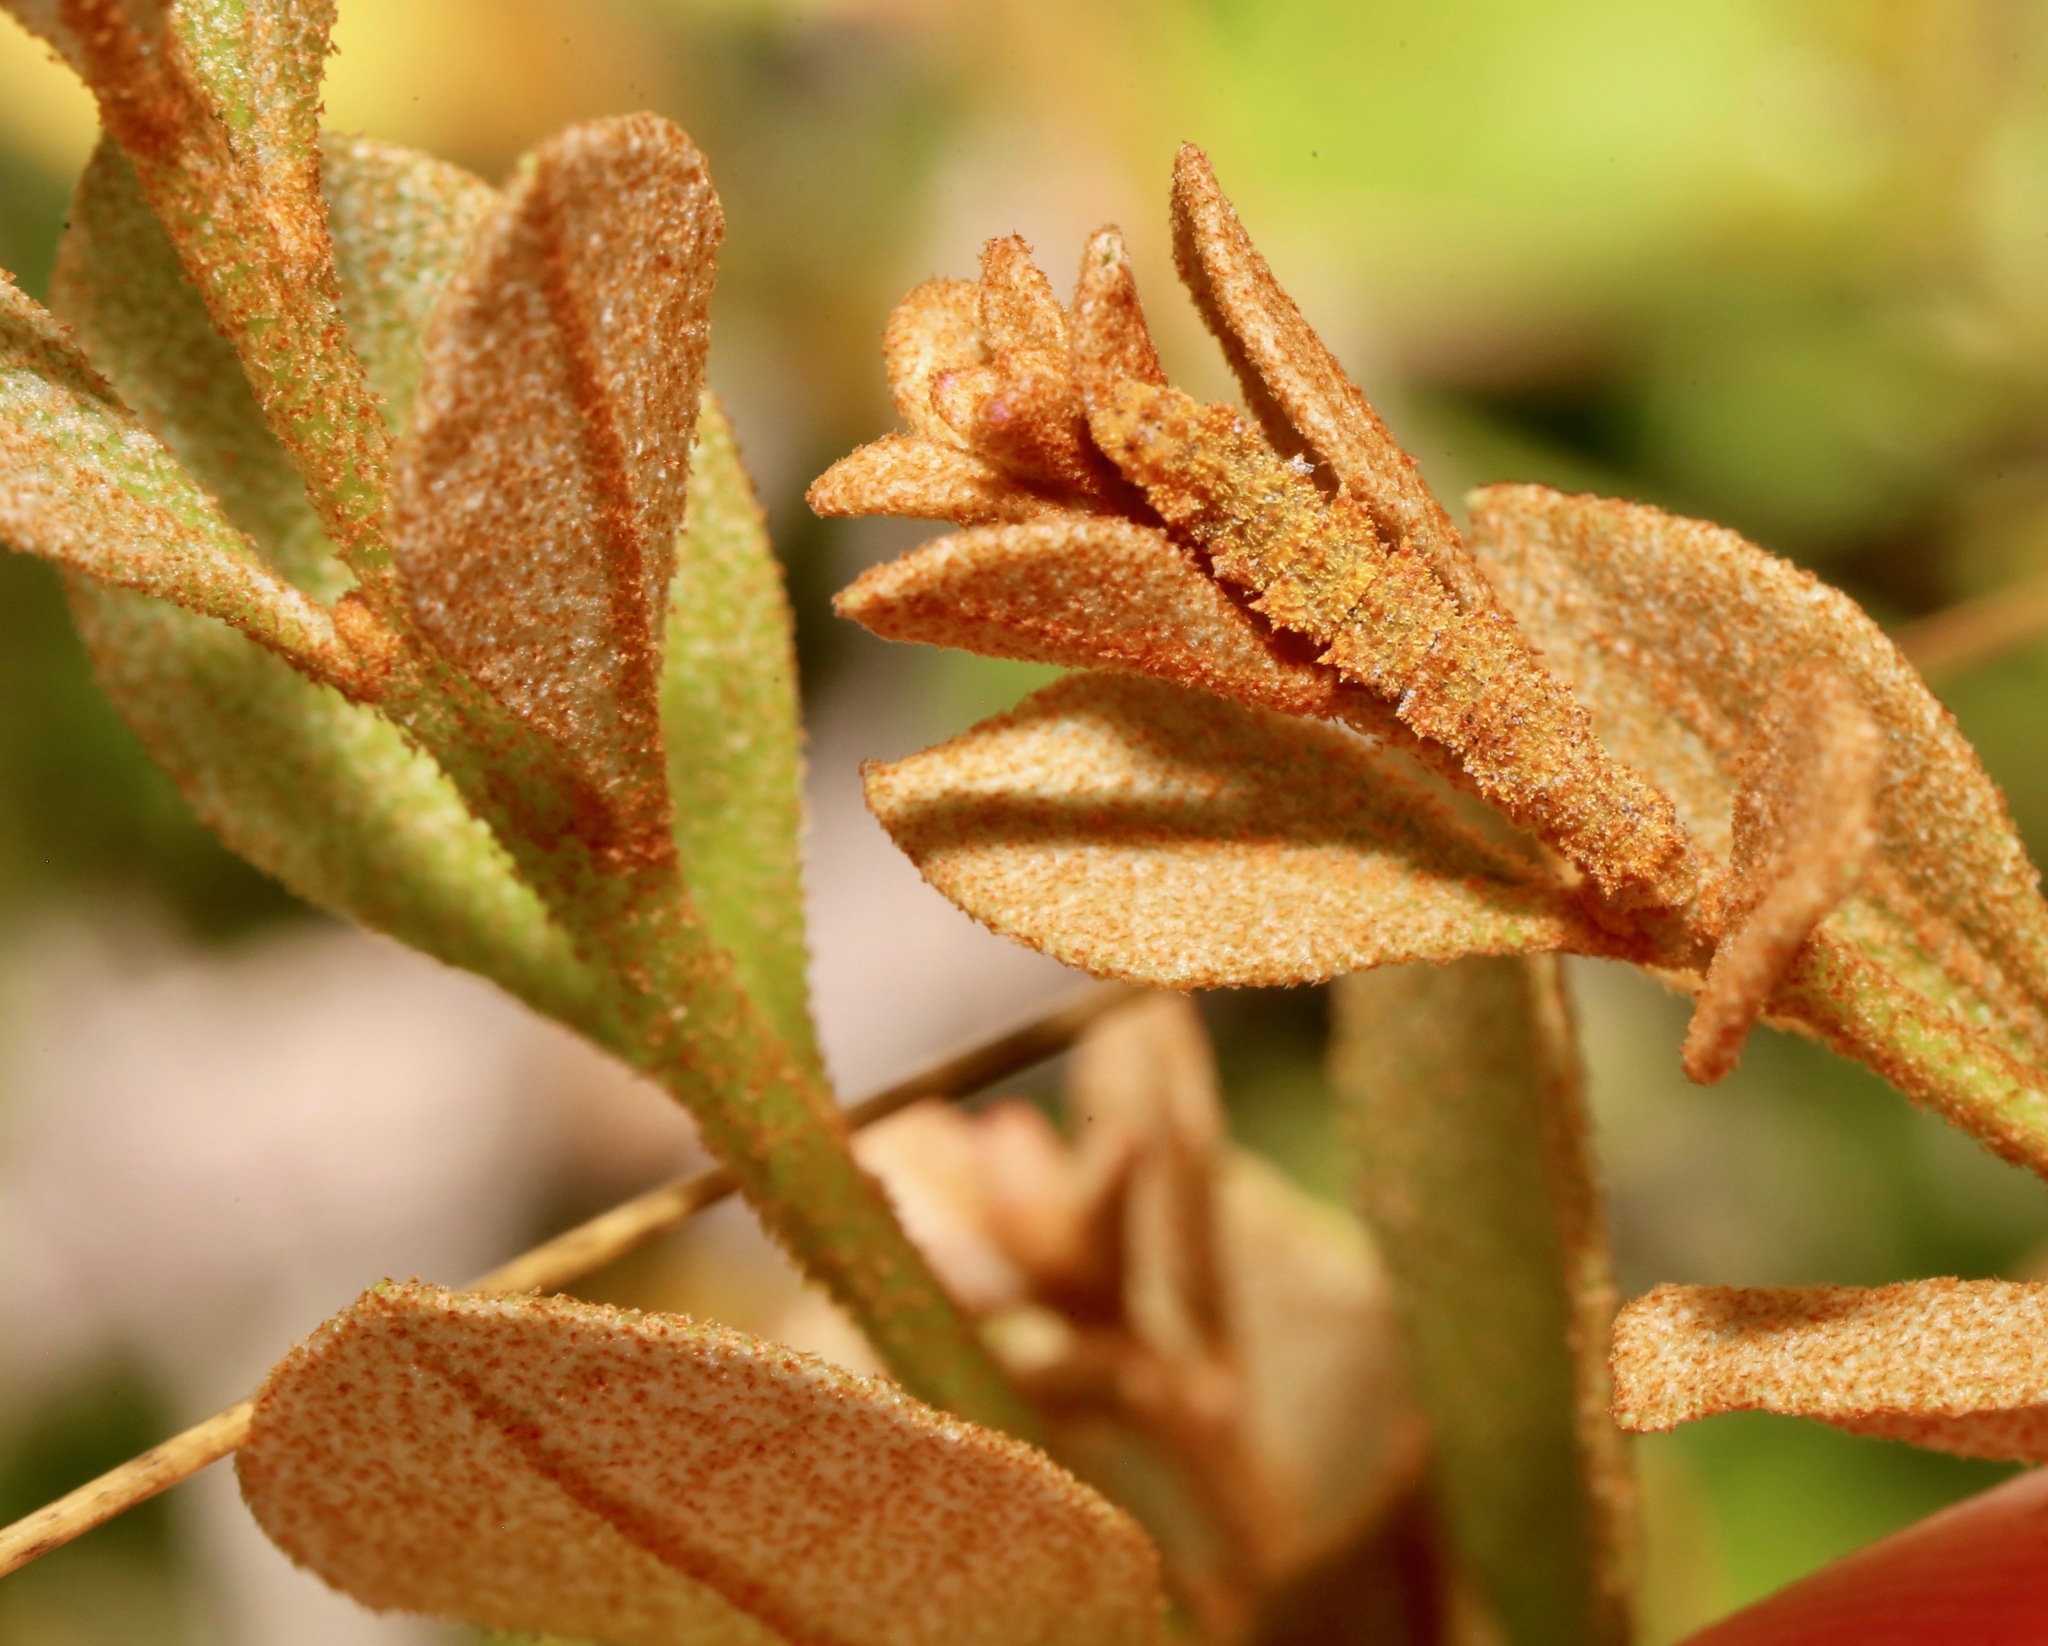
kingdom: Animalia
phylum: Arthropoda
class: Insecta
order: Lepidoptera
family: Geometridae
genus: Nemoria
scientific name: Nemoria catachloa
